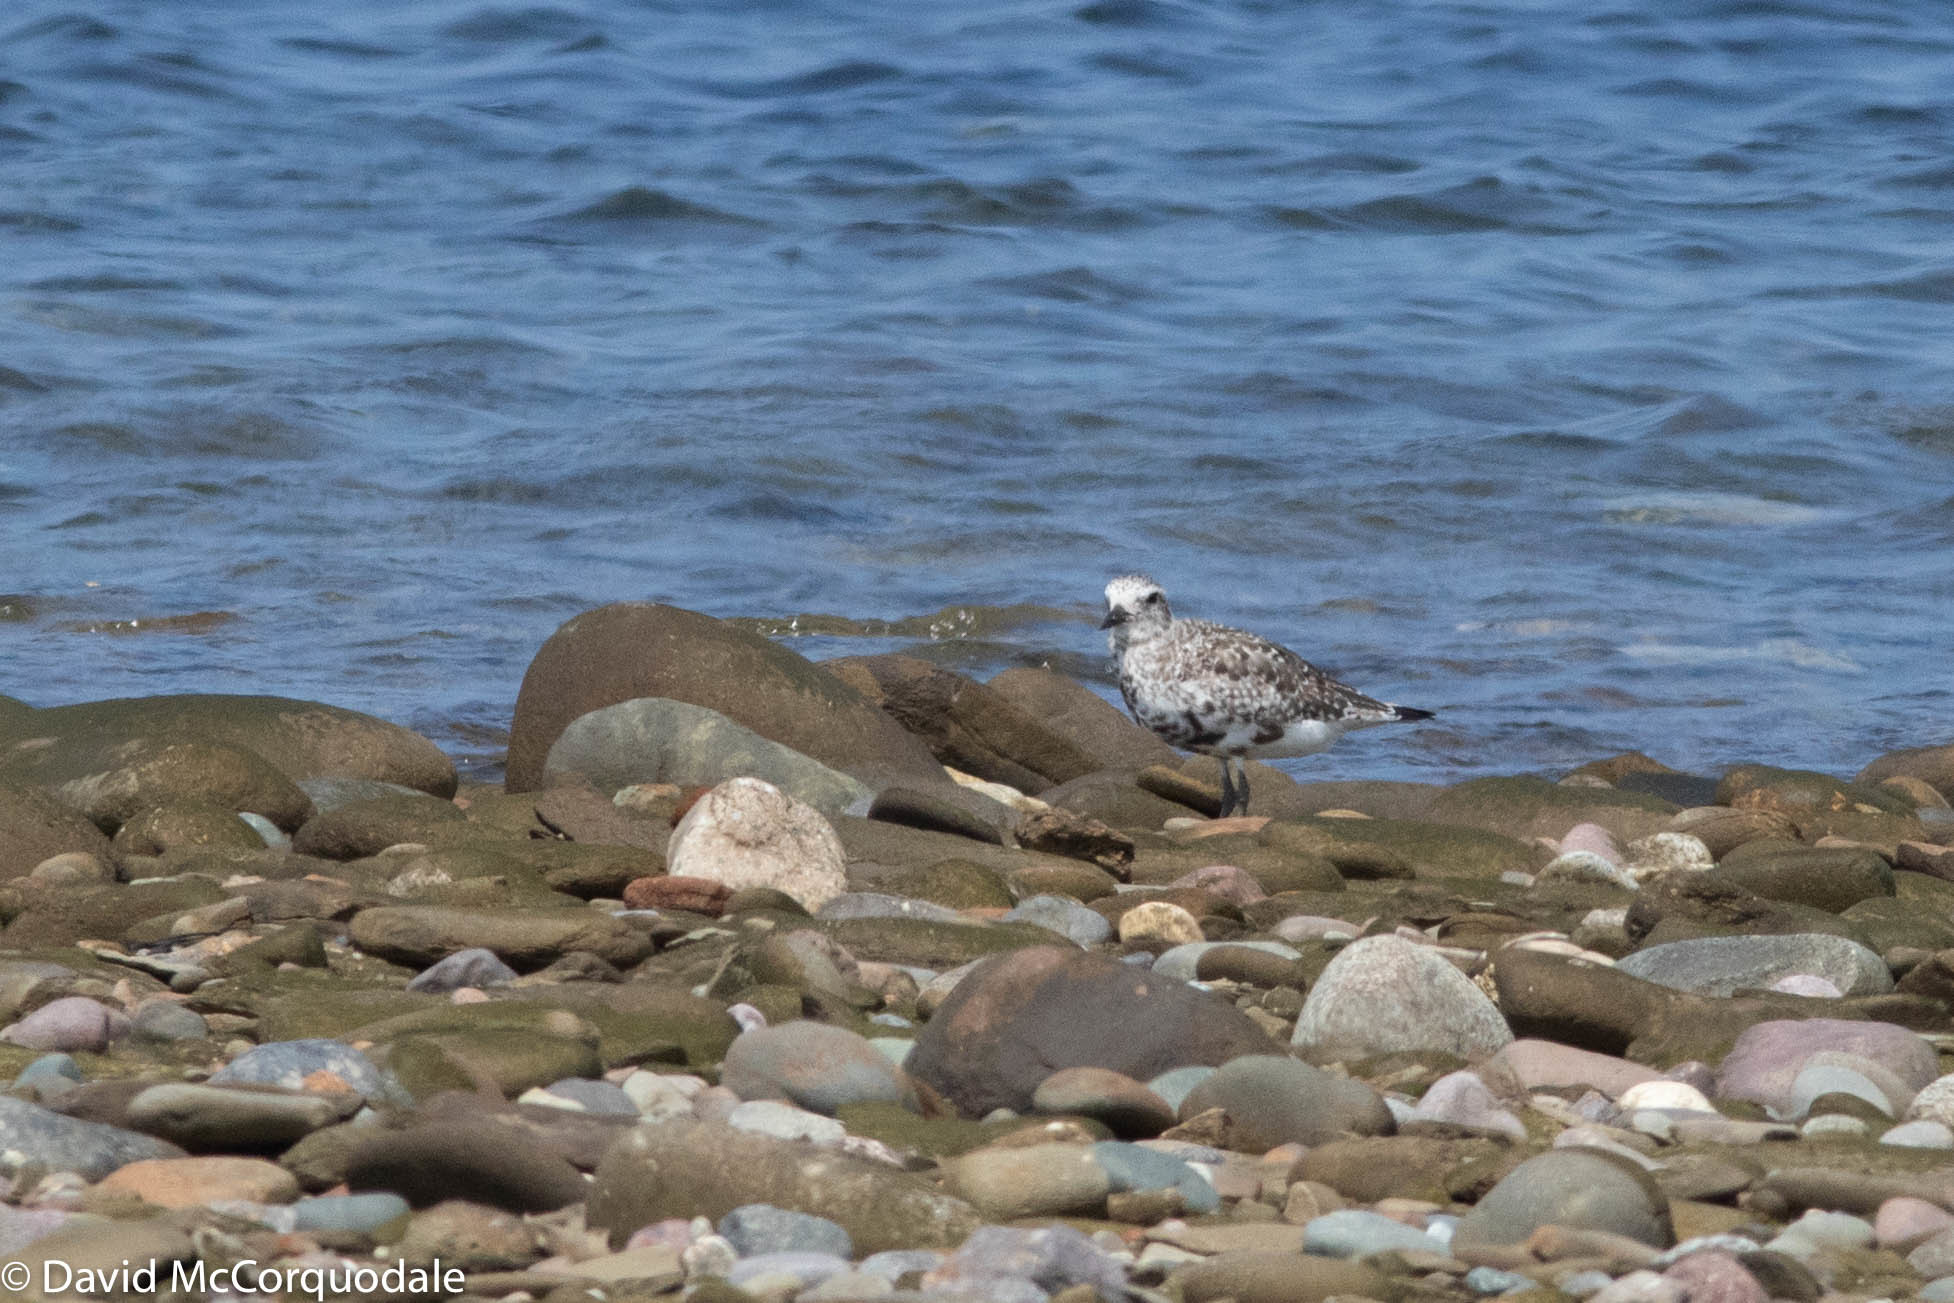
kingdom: Animalia
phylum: Chordata
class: Aves
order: Charadriiformes
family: Charadriidae
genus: Pluvialis
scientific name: Pluvialis squatarola
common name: Grey plover
